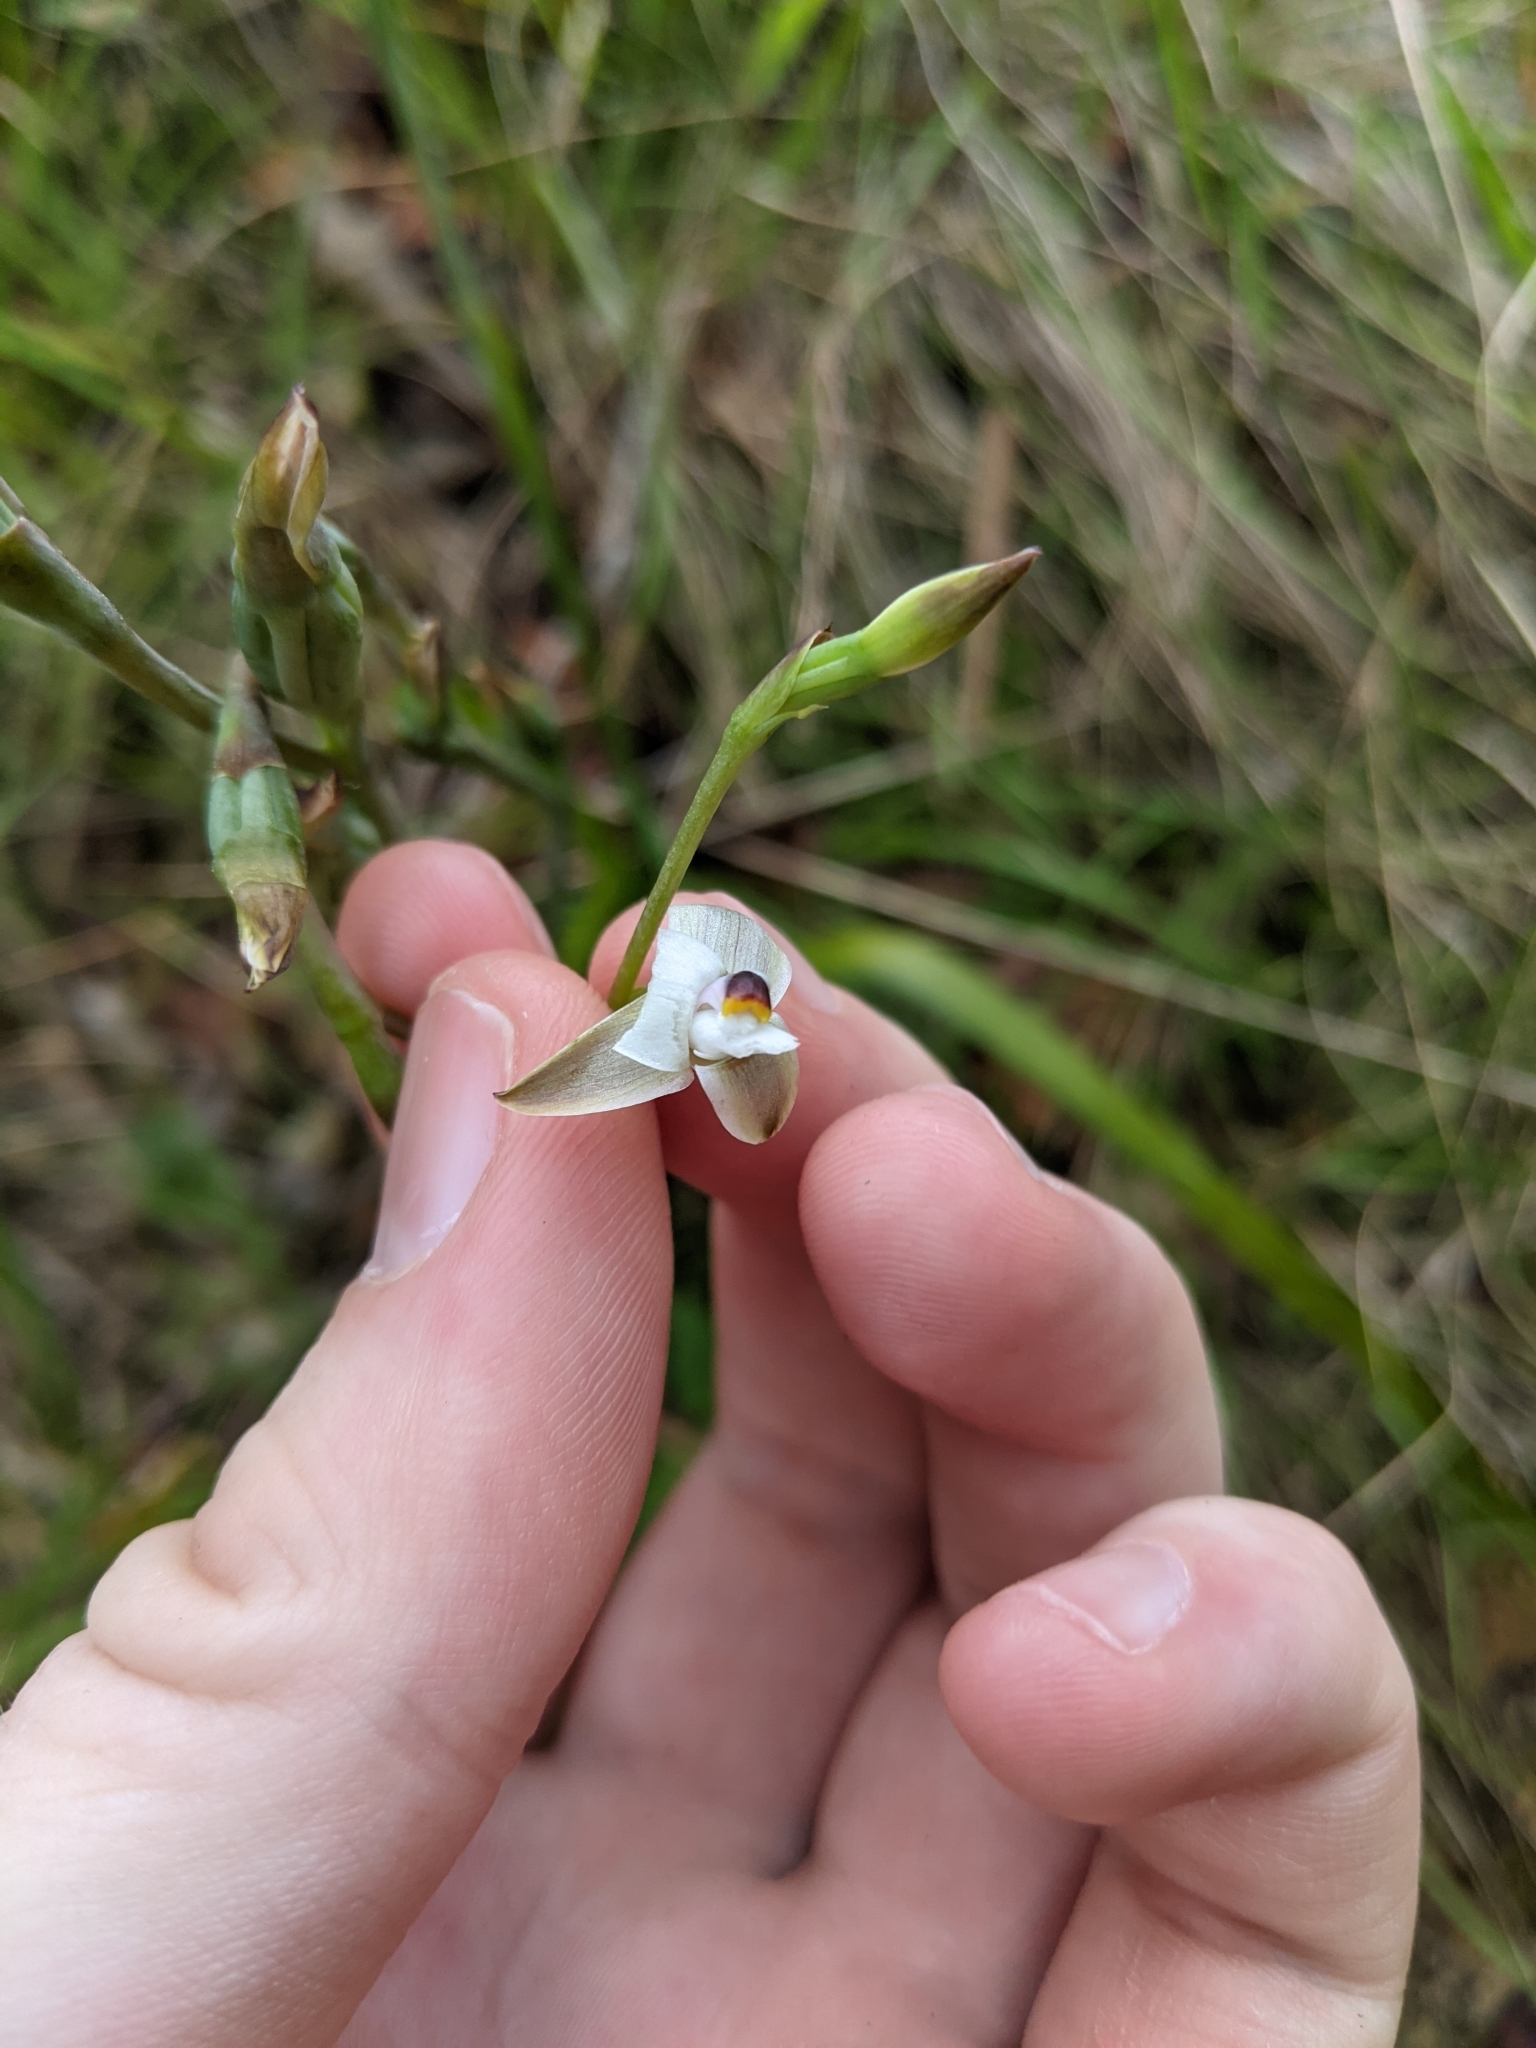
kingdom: Plantae
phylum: Tracheophyta
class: Liliopsida
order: Asparagales
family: Orchidaceae
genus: Thelymitra
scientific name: Thelymitra longifolia
